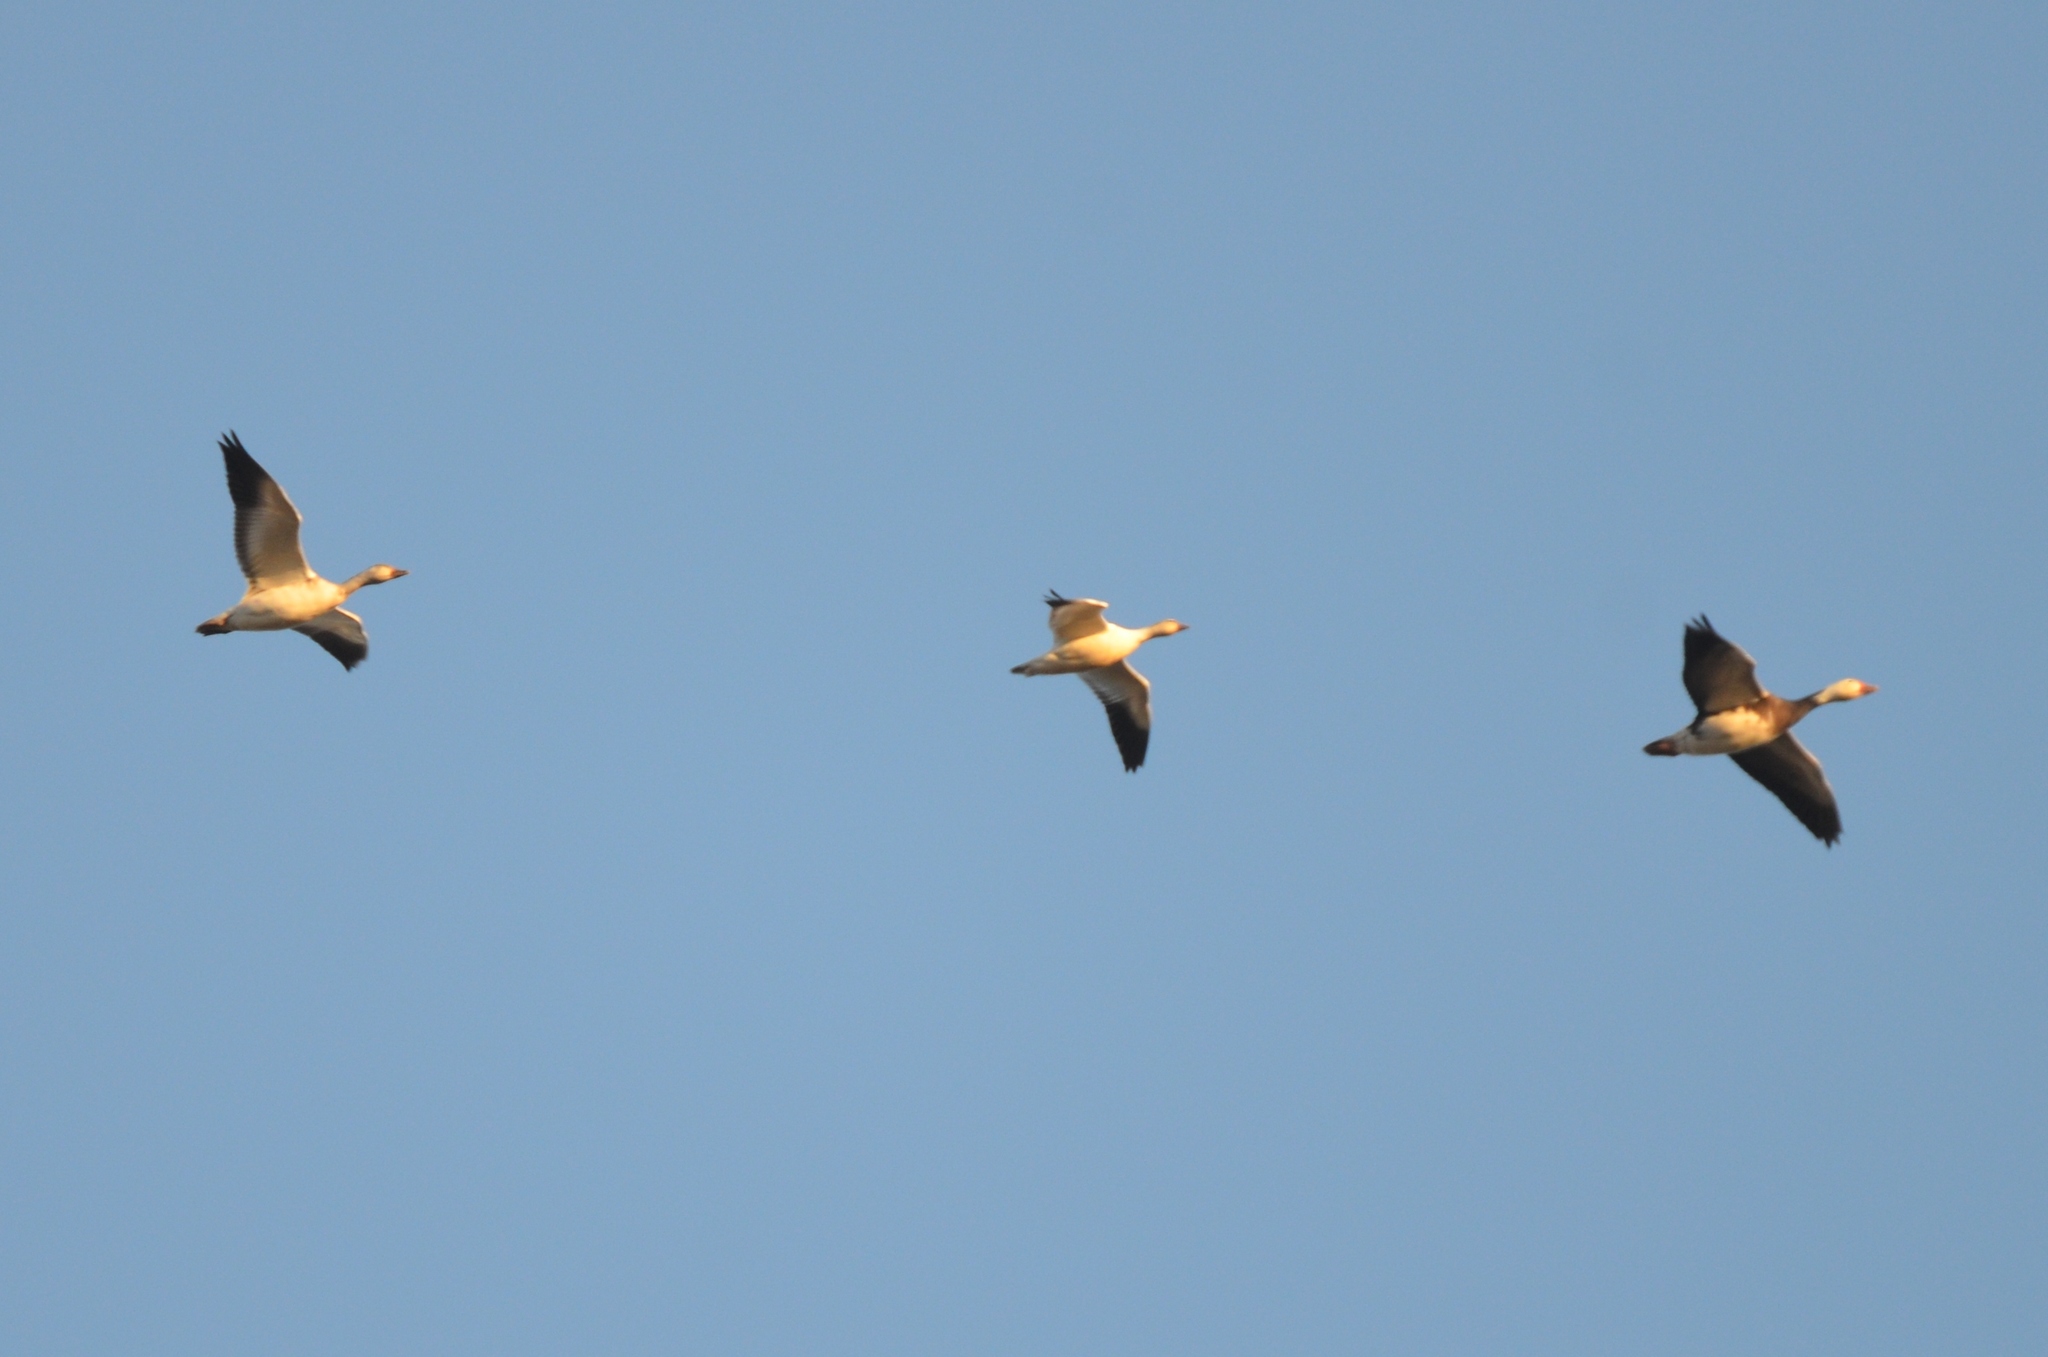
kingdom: Animalia
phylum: Chordata
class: Aves
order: Anseriformes
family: Anatidae
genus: Anser
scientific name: Anser rossii
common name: Ross's goose
